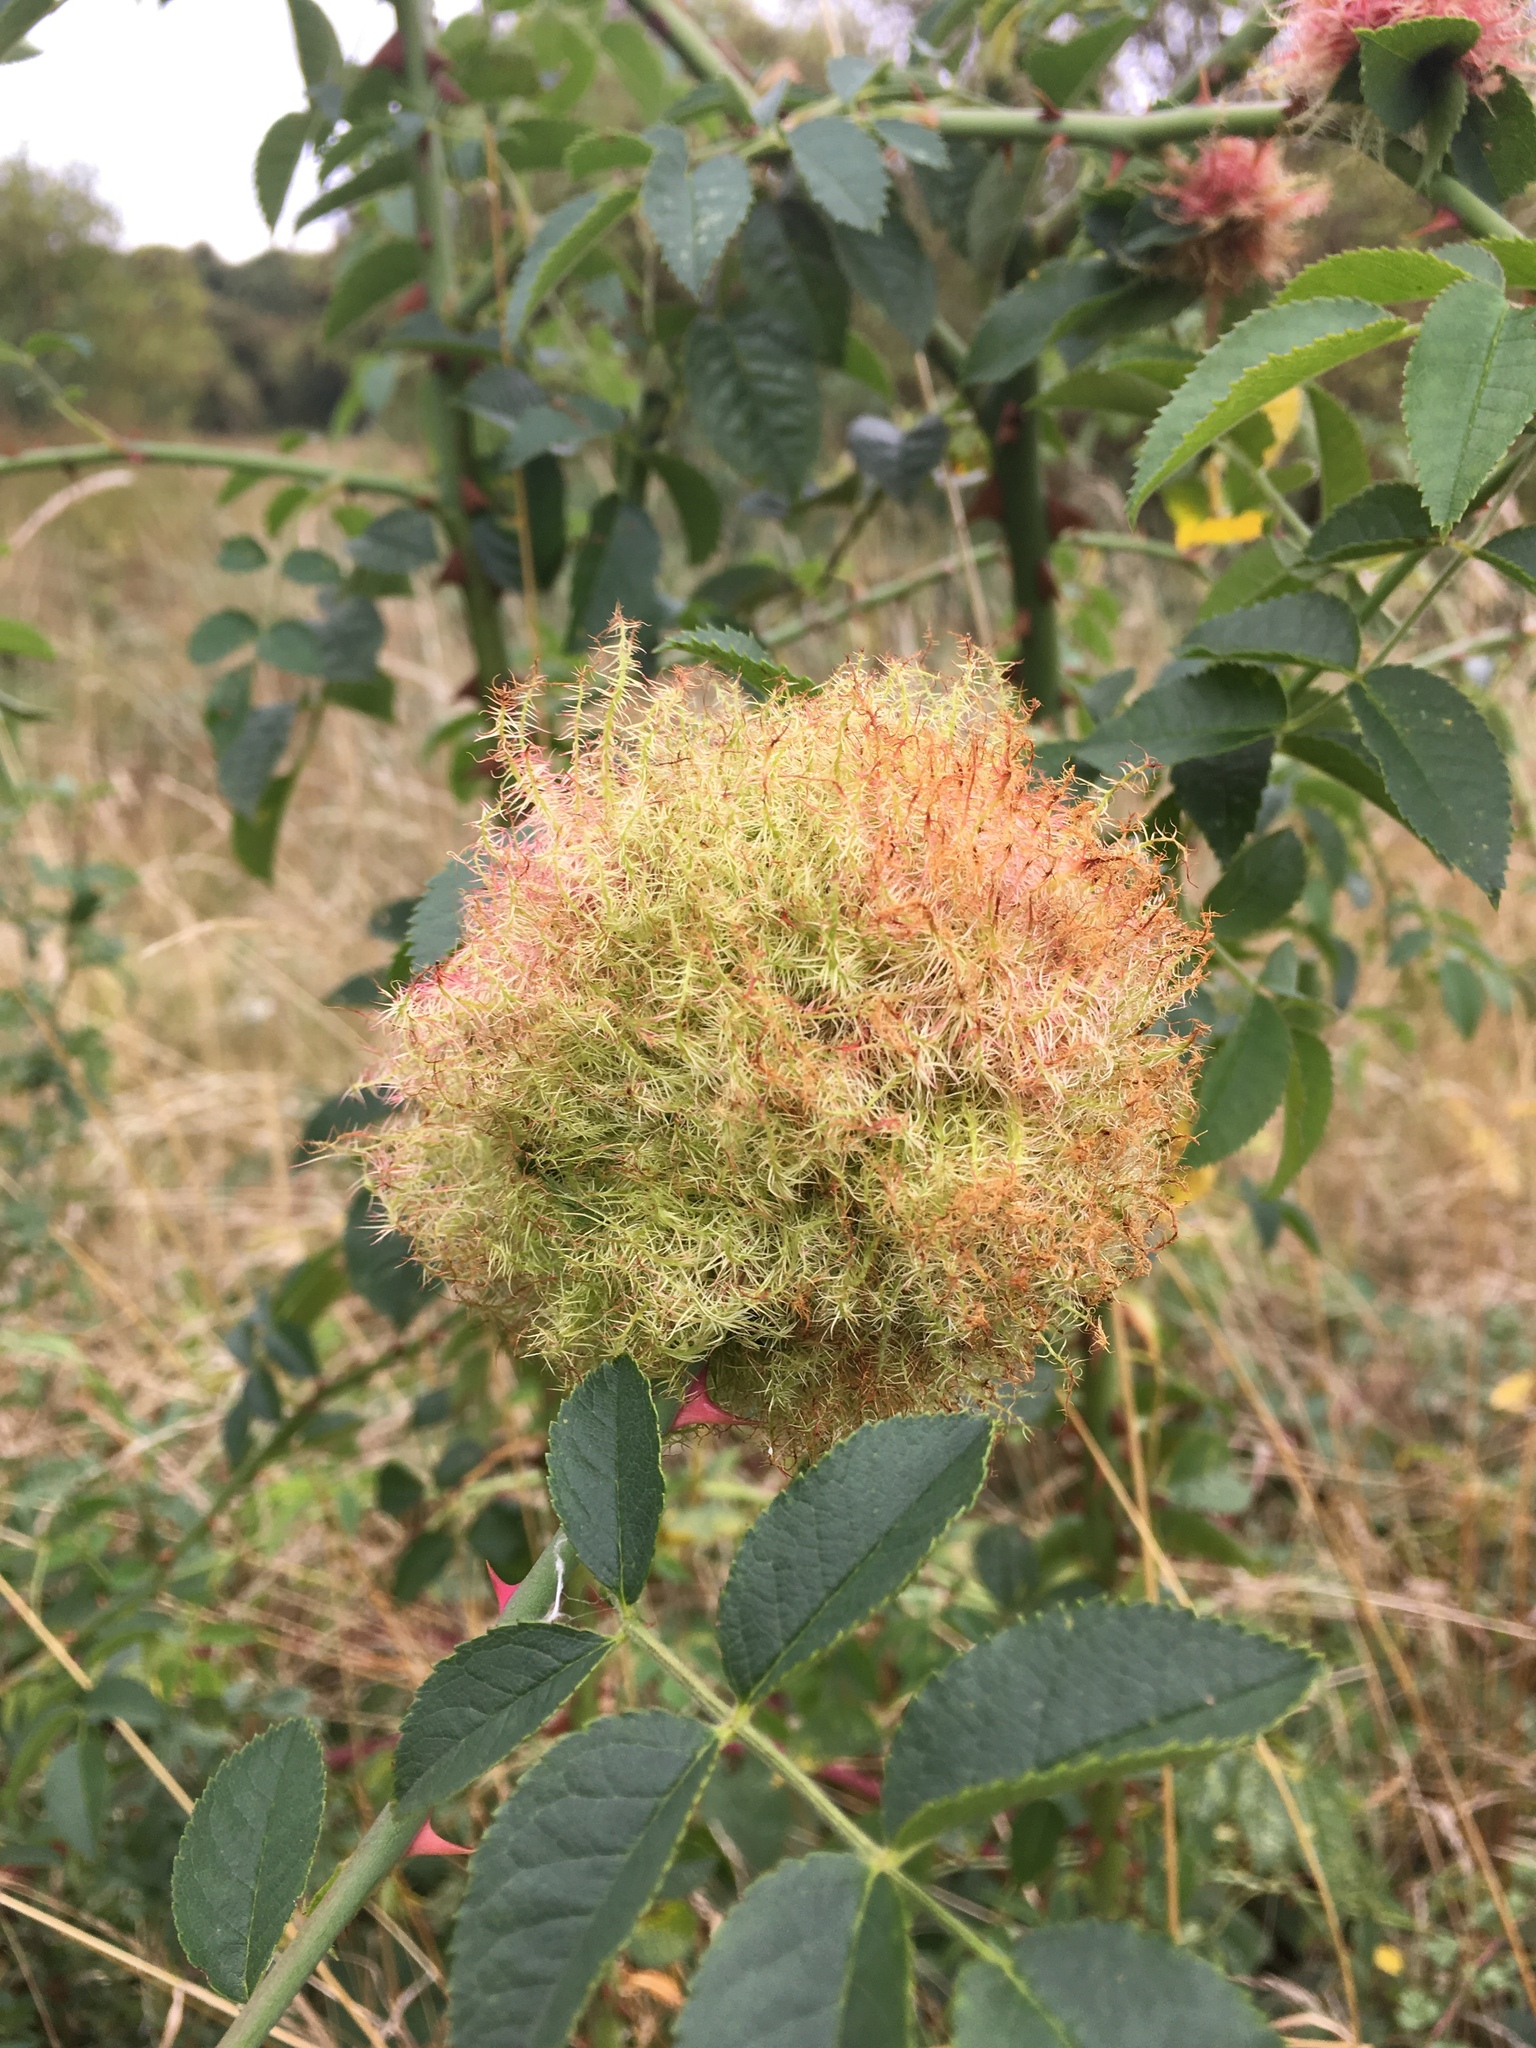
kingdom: Animalia
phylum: Arthropoda
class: Insecta
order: Hymenoptera
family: Cynipidae
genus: Diplolepis
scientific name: Diplolepis rosae
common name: Bedeguar gall
